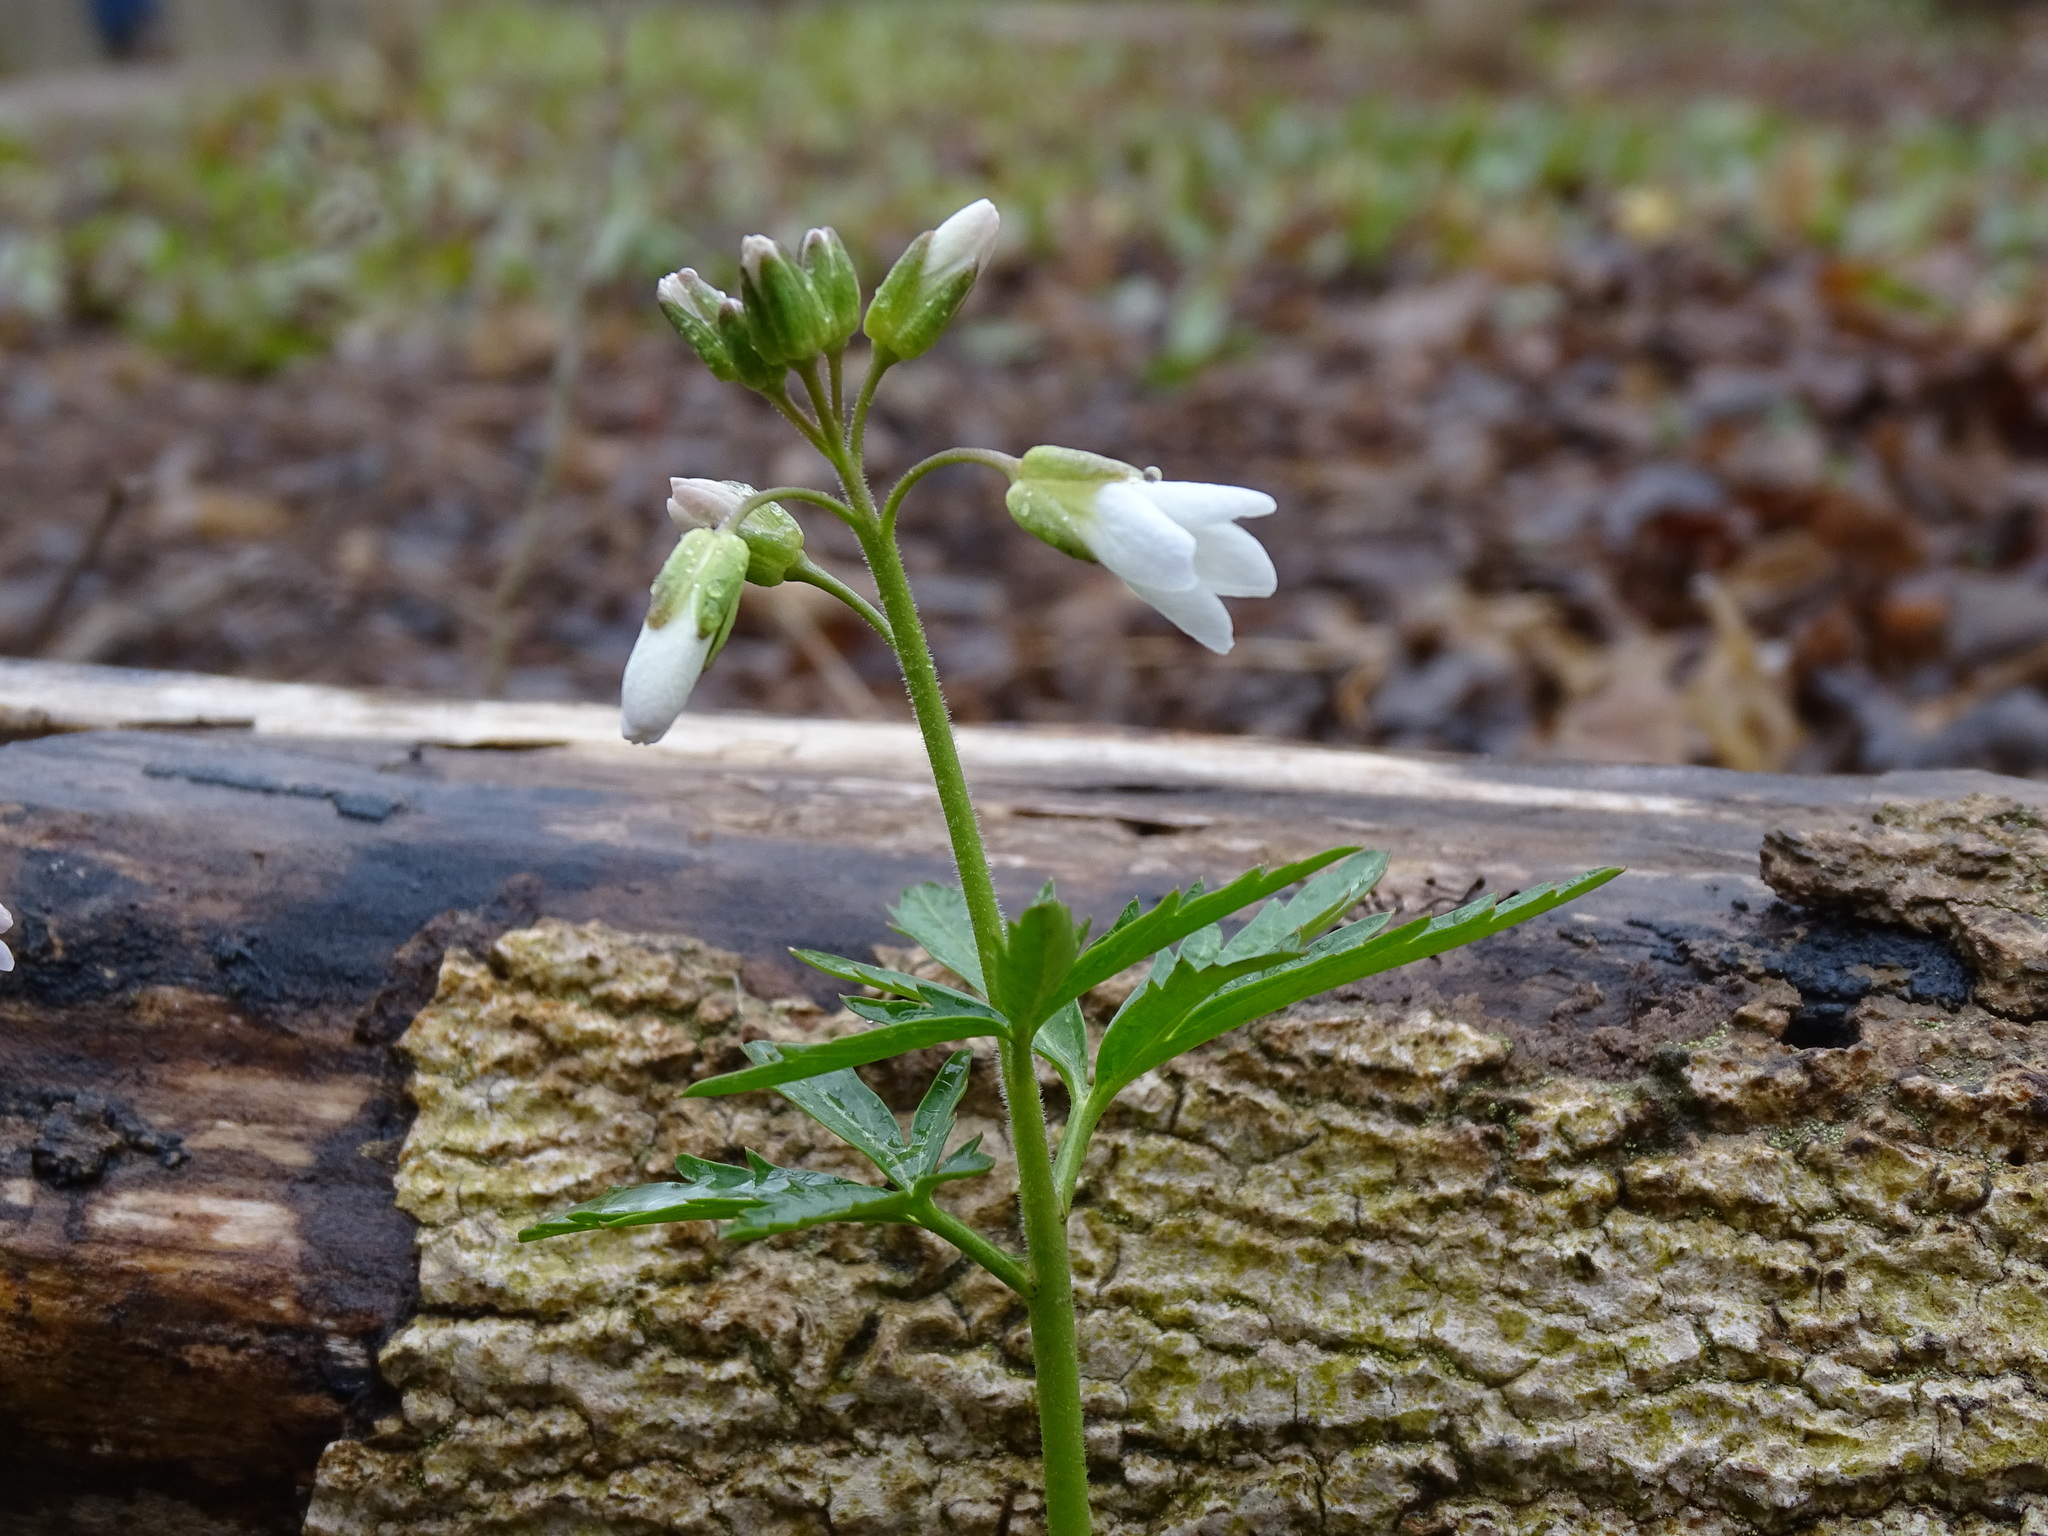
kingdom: Plantae
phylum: Tracheophyta
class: Magnoliopsida
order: Brassicales
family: Brassicaceae
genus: Cardamine
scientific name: Cardamine concatenata
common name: Cut-leaf toothcup
